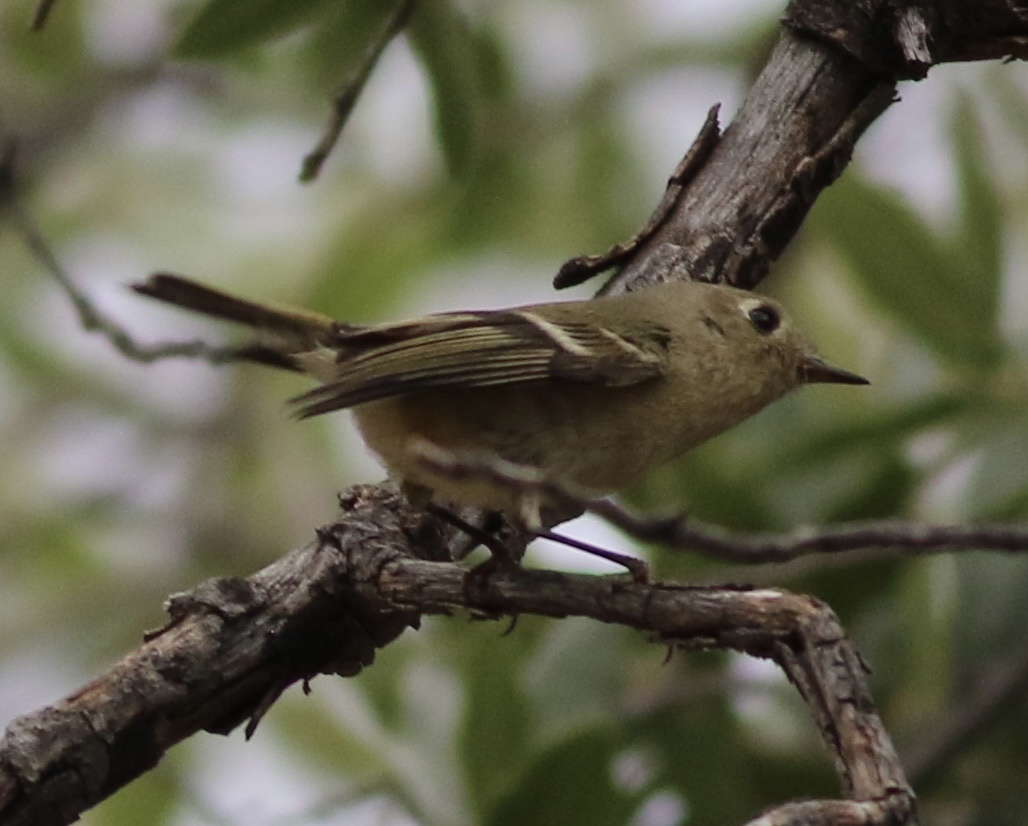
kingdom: Animalia
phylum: Chordata
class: Aves
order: Passeriformes
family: Regulidae
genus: Regulus
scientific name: Regulus calendula
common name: Ruby-crowned kinglet
